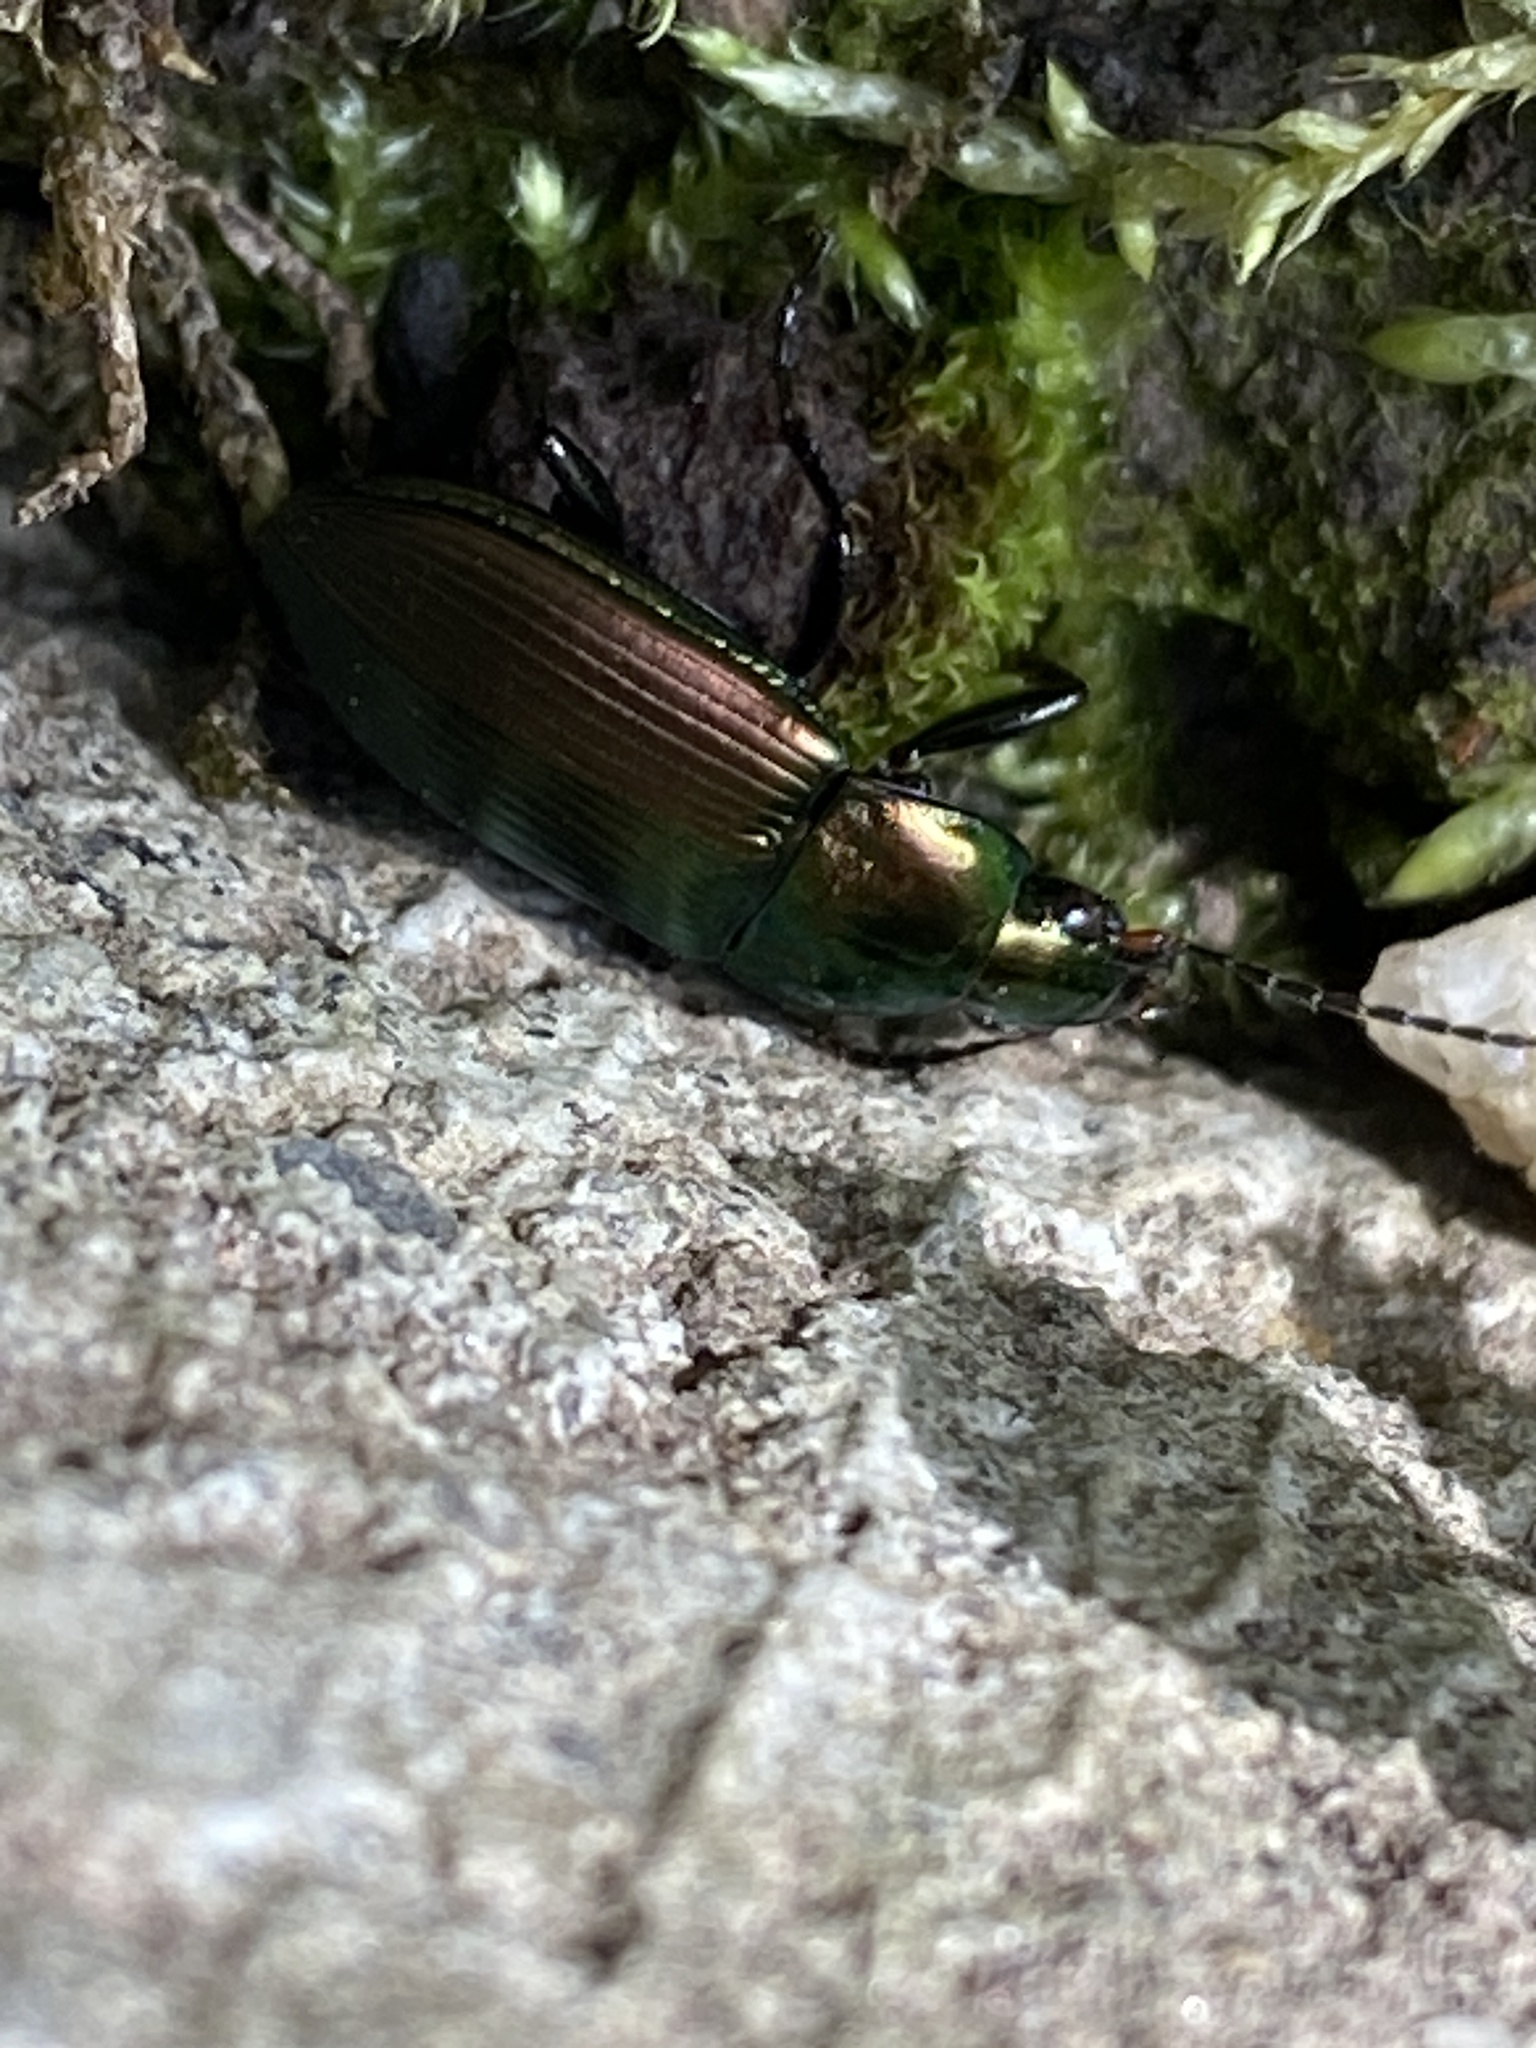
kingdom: Animalia
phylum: Arthropoda
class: Insecta
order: Coleoptera
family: Carabidae
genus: Poecilus
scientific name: Poecilus cupreus
